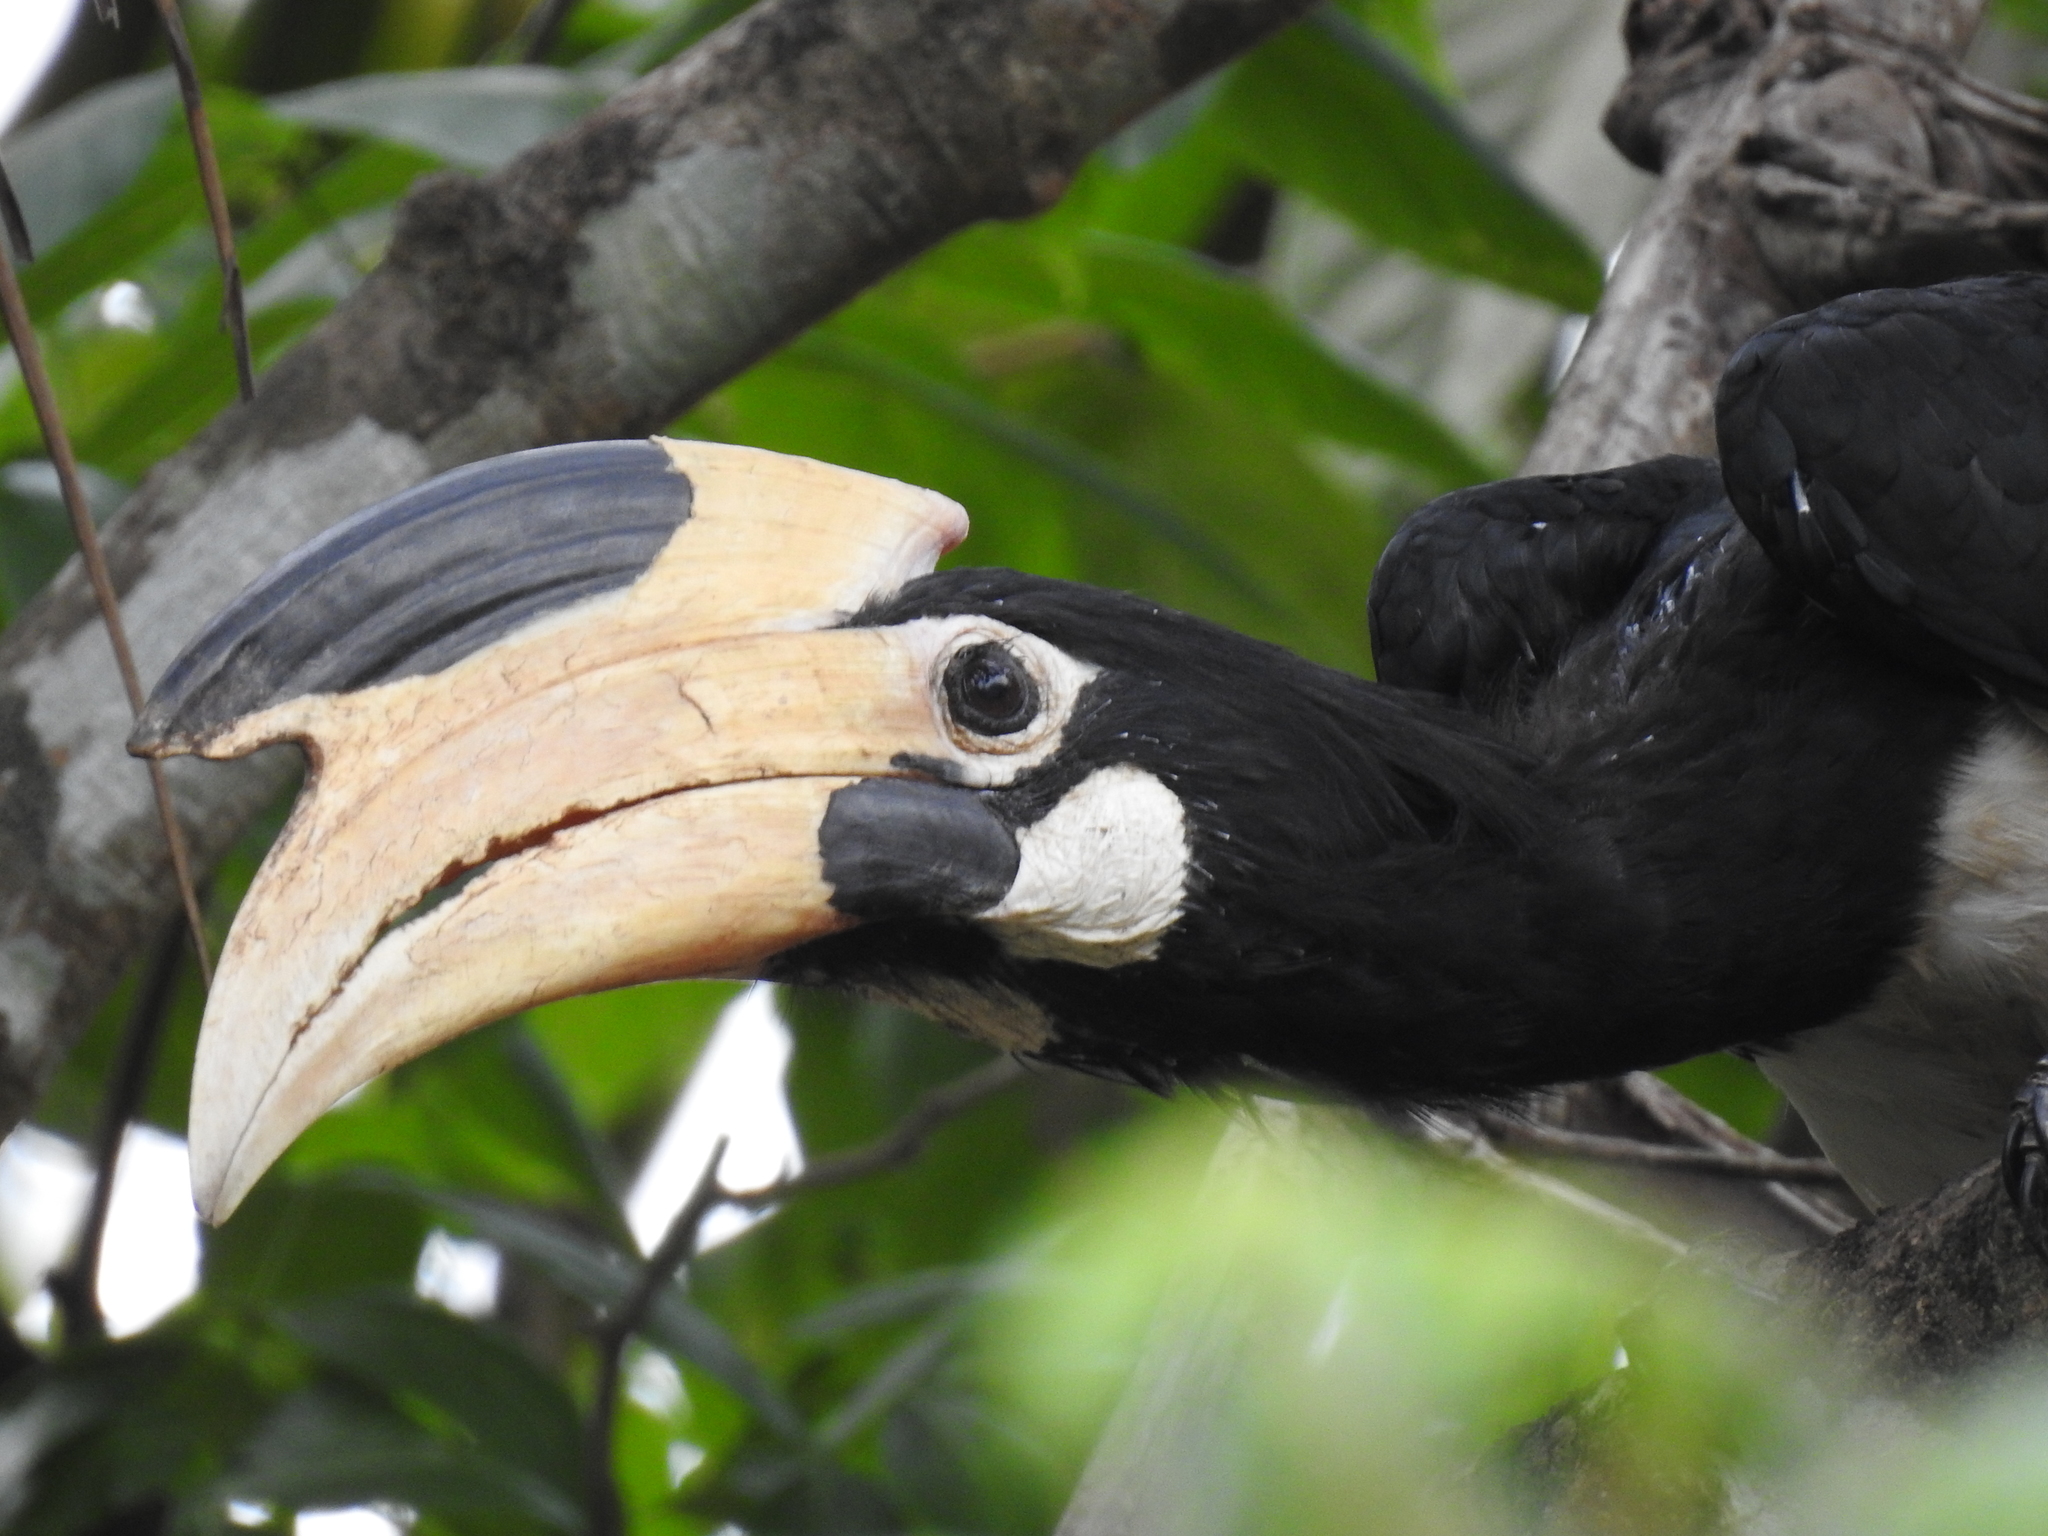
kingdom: Animalia
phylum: Chordata
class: Aves
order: Bucerotiformes
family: Bucerotidae
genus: Anthracoceros
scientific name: Anthracoceros coronatus
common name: Malabar pied hornbill
